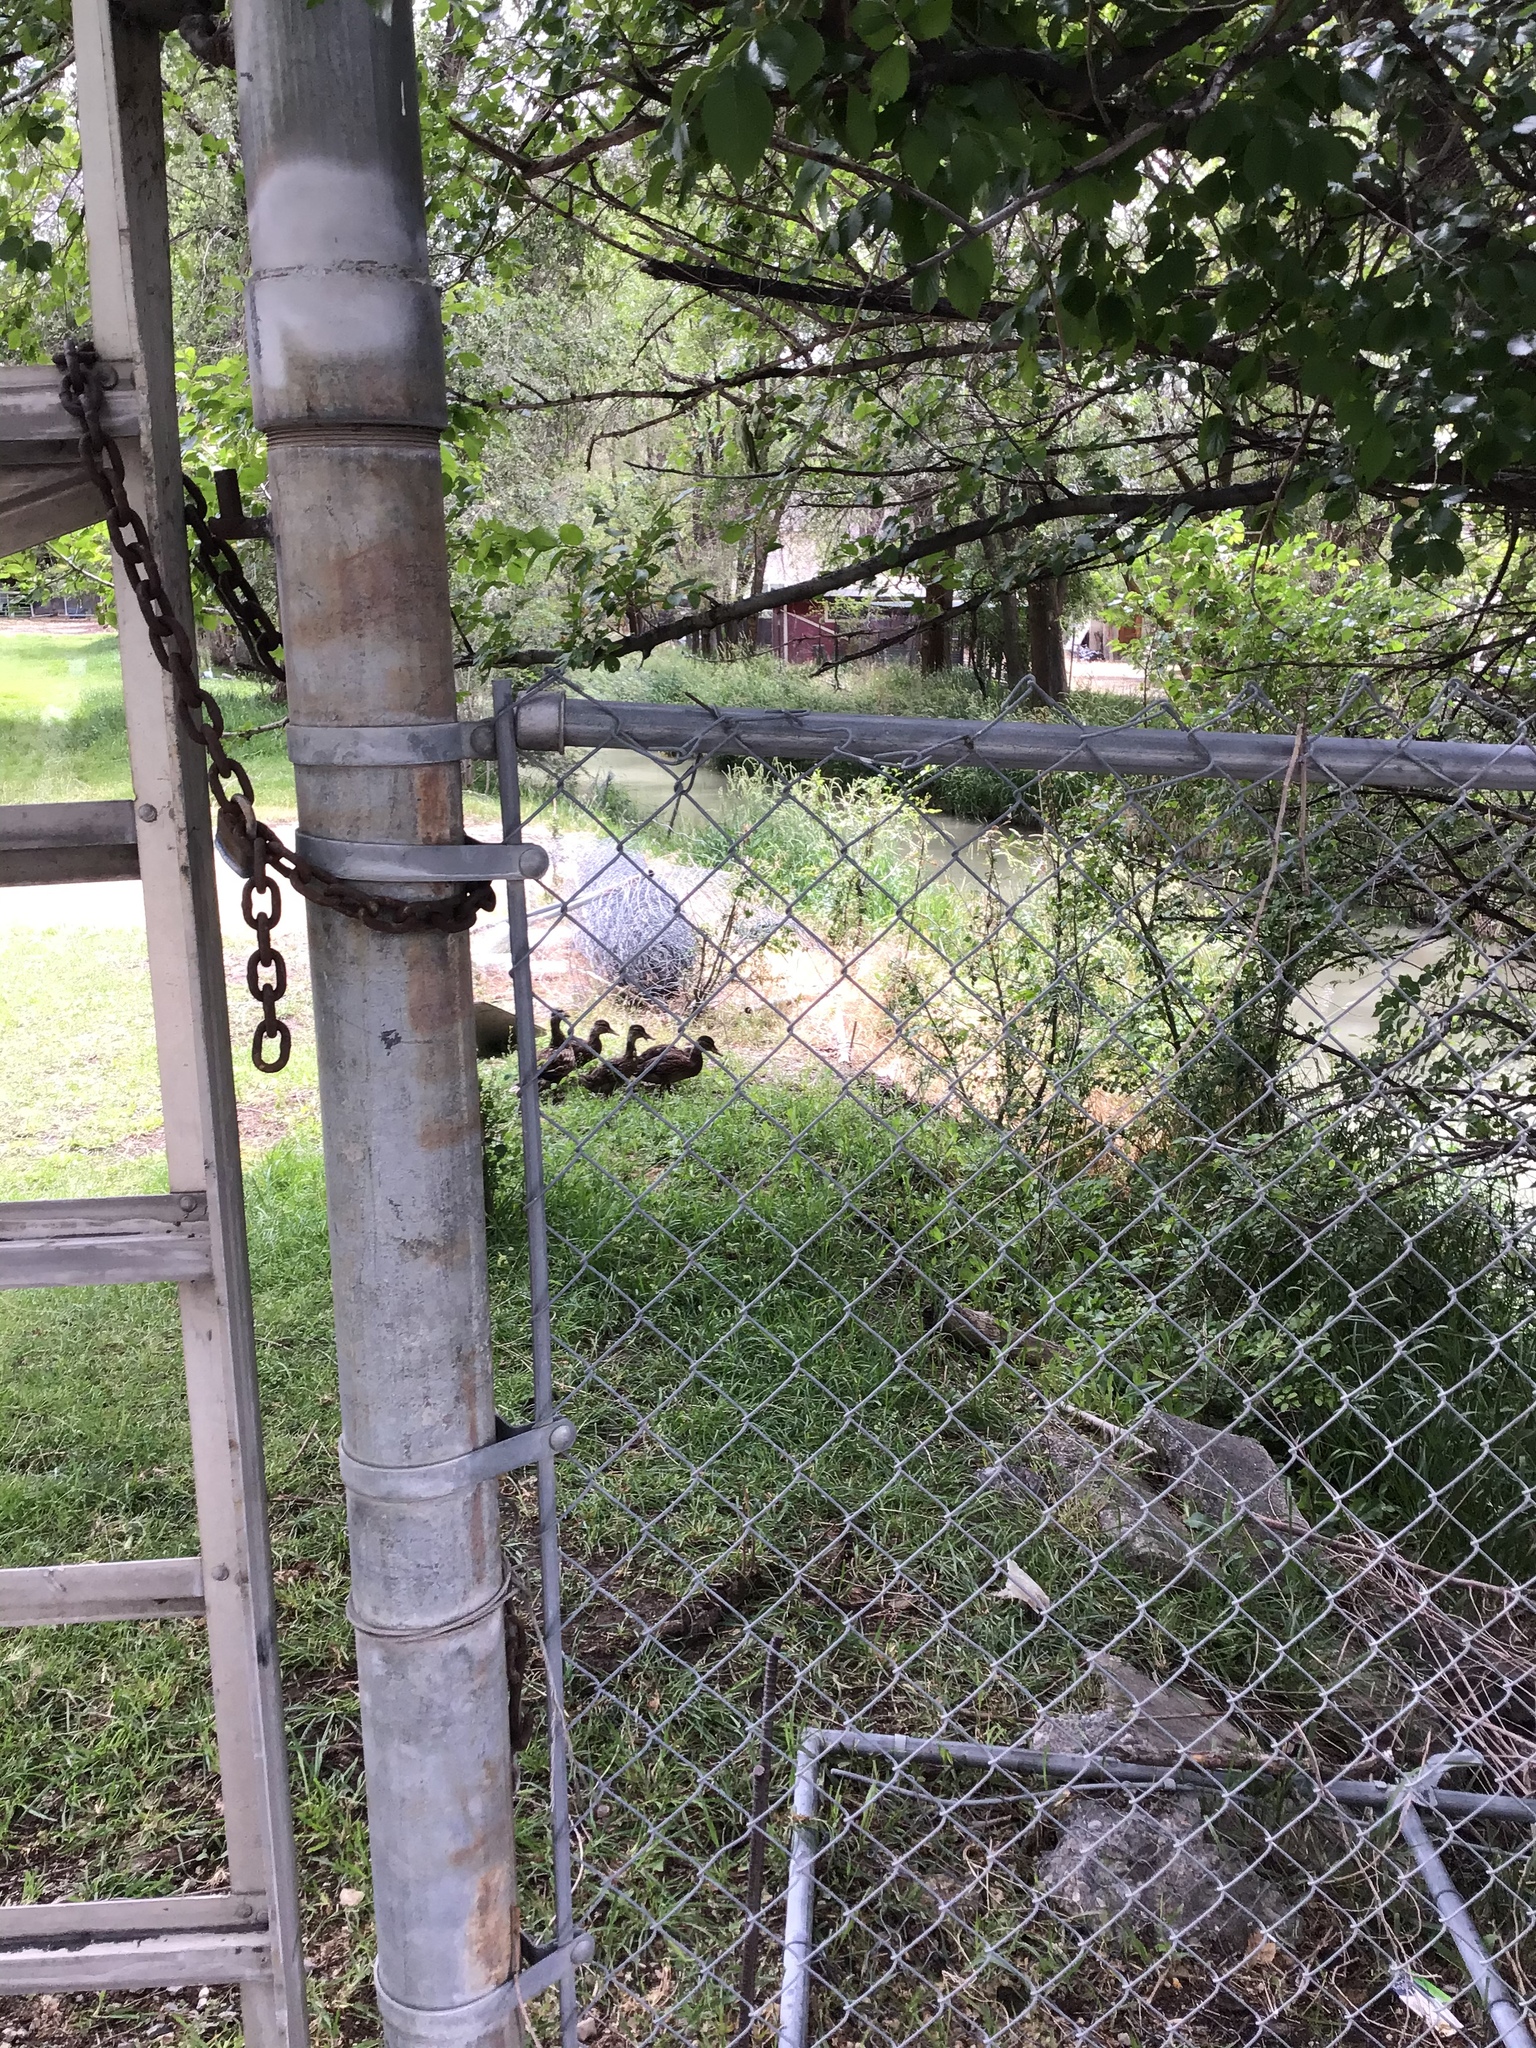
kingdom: Animalia
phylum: Chordata
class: Aves
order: Anseriformes
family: Anatidae
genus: Anas
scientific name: Anas platyrhynchos
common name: Mallard
